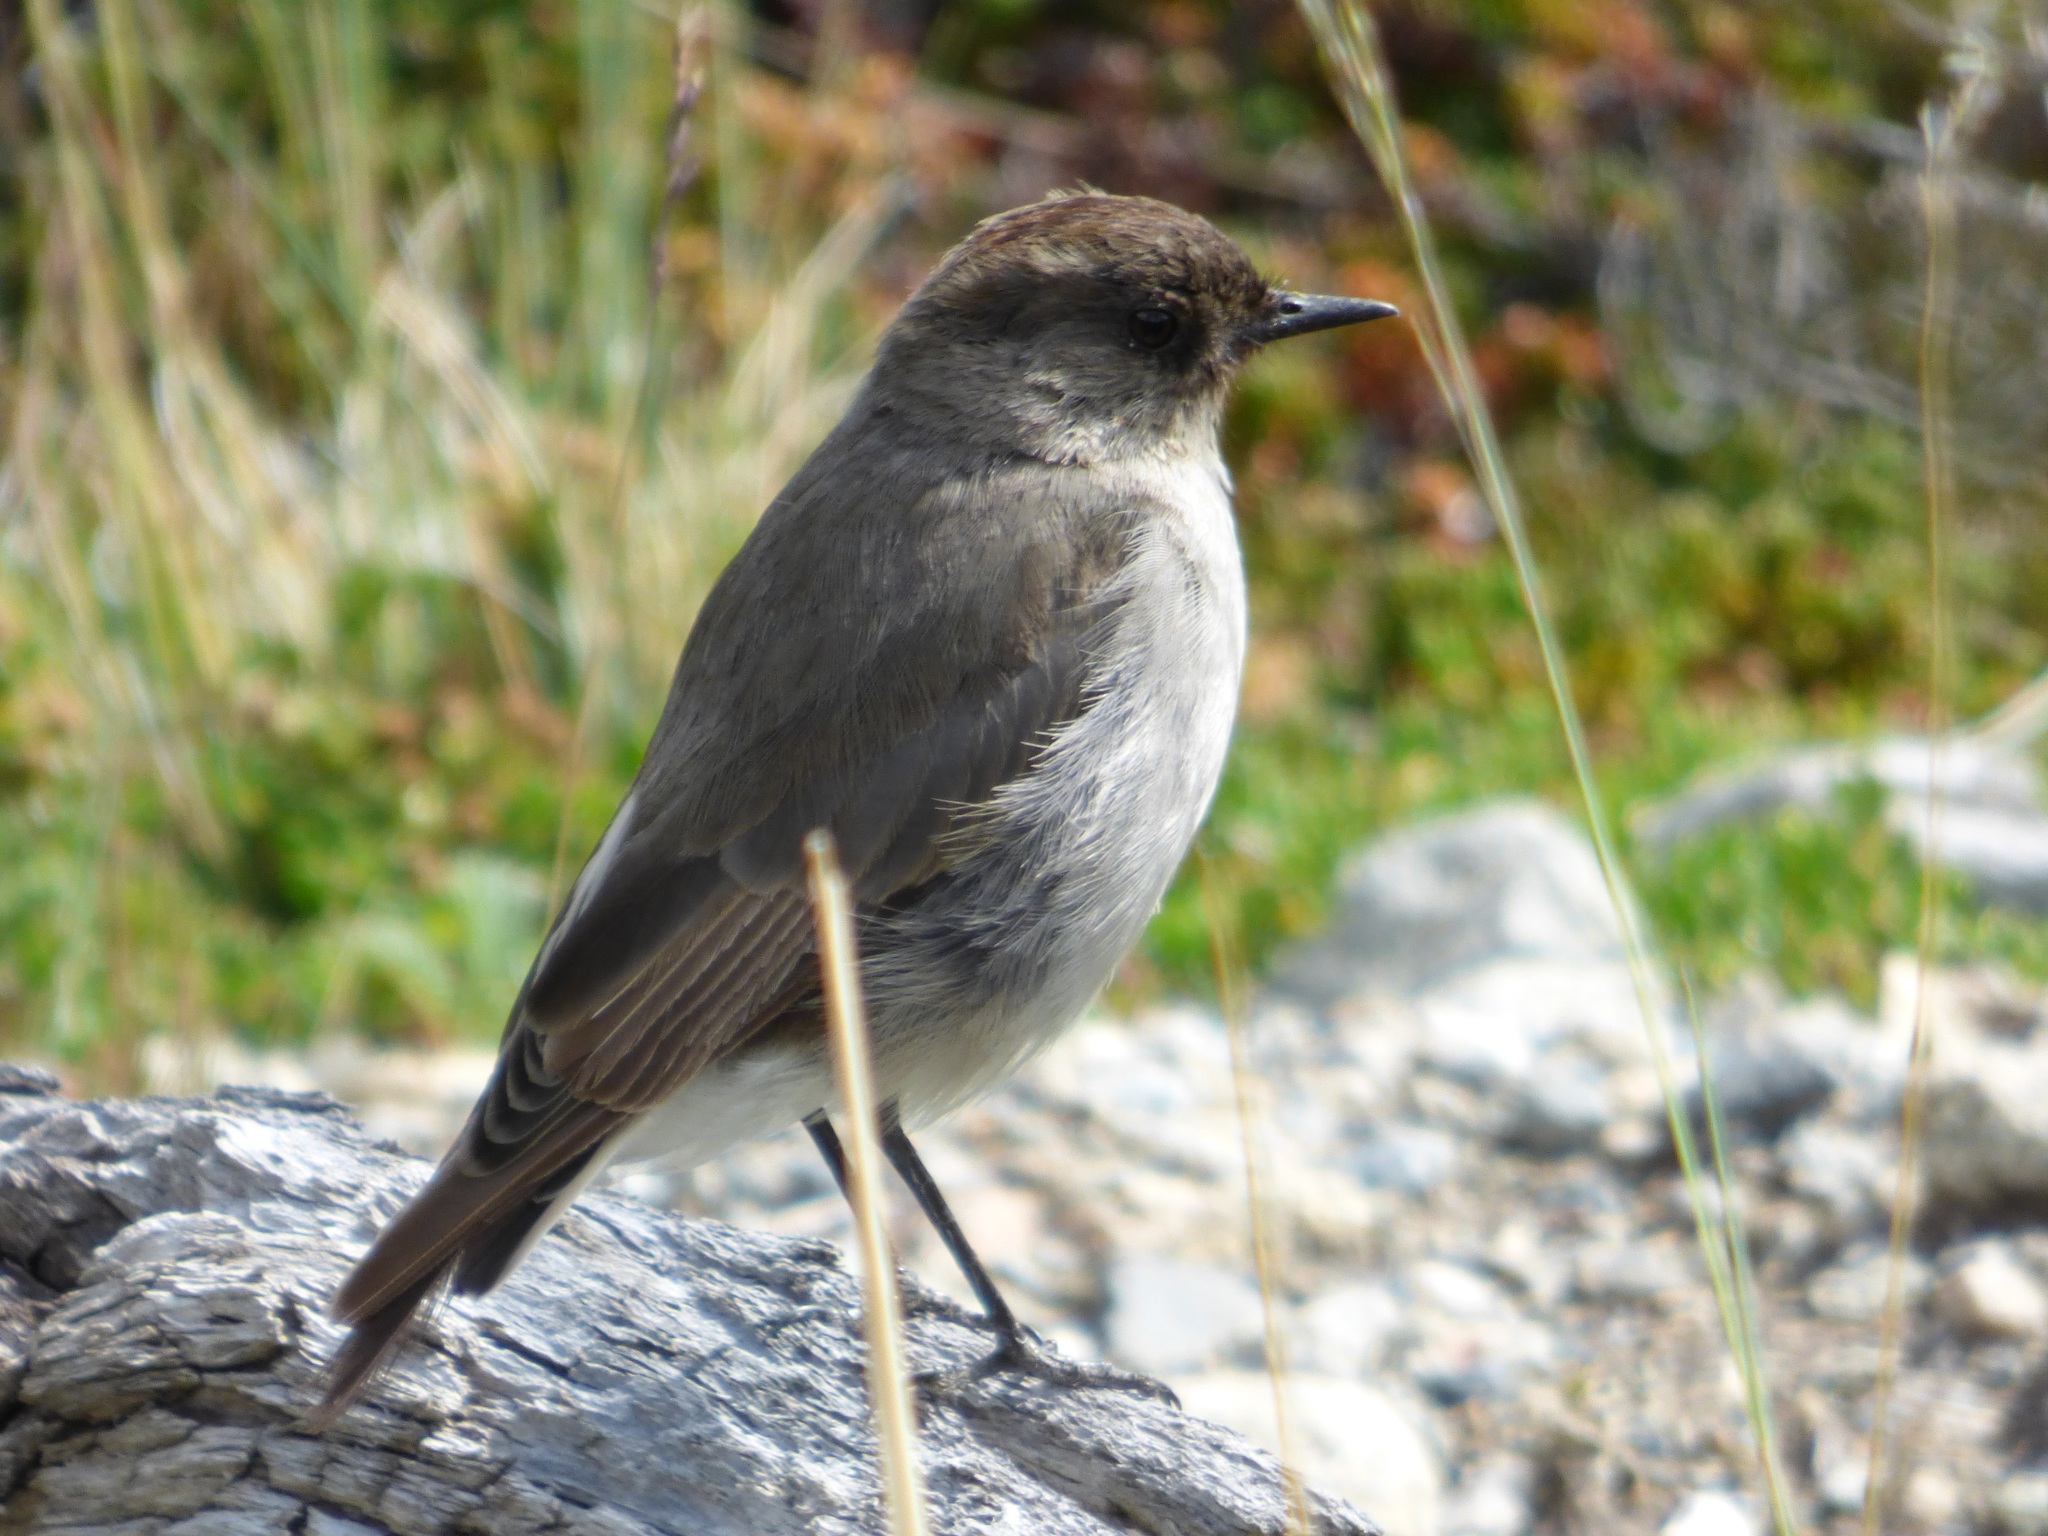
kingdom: Animalia
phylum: Chordata
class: Aves
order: Passeriformes
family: Tyrannidae
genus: Muscisaxicola
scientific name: Muscisaxicola maclovianus
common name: Dark-faced ground tyrant
